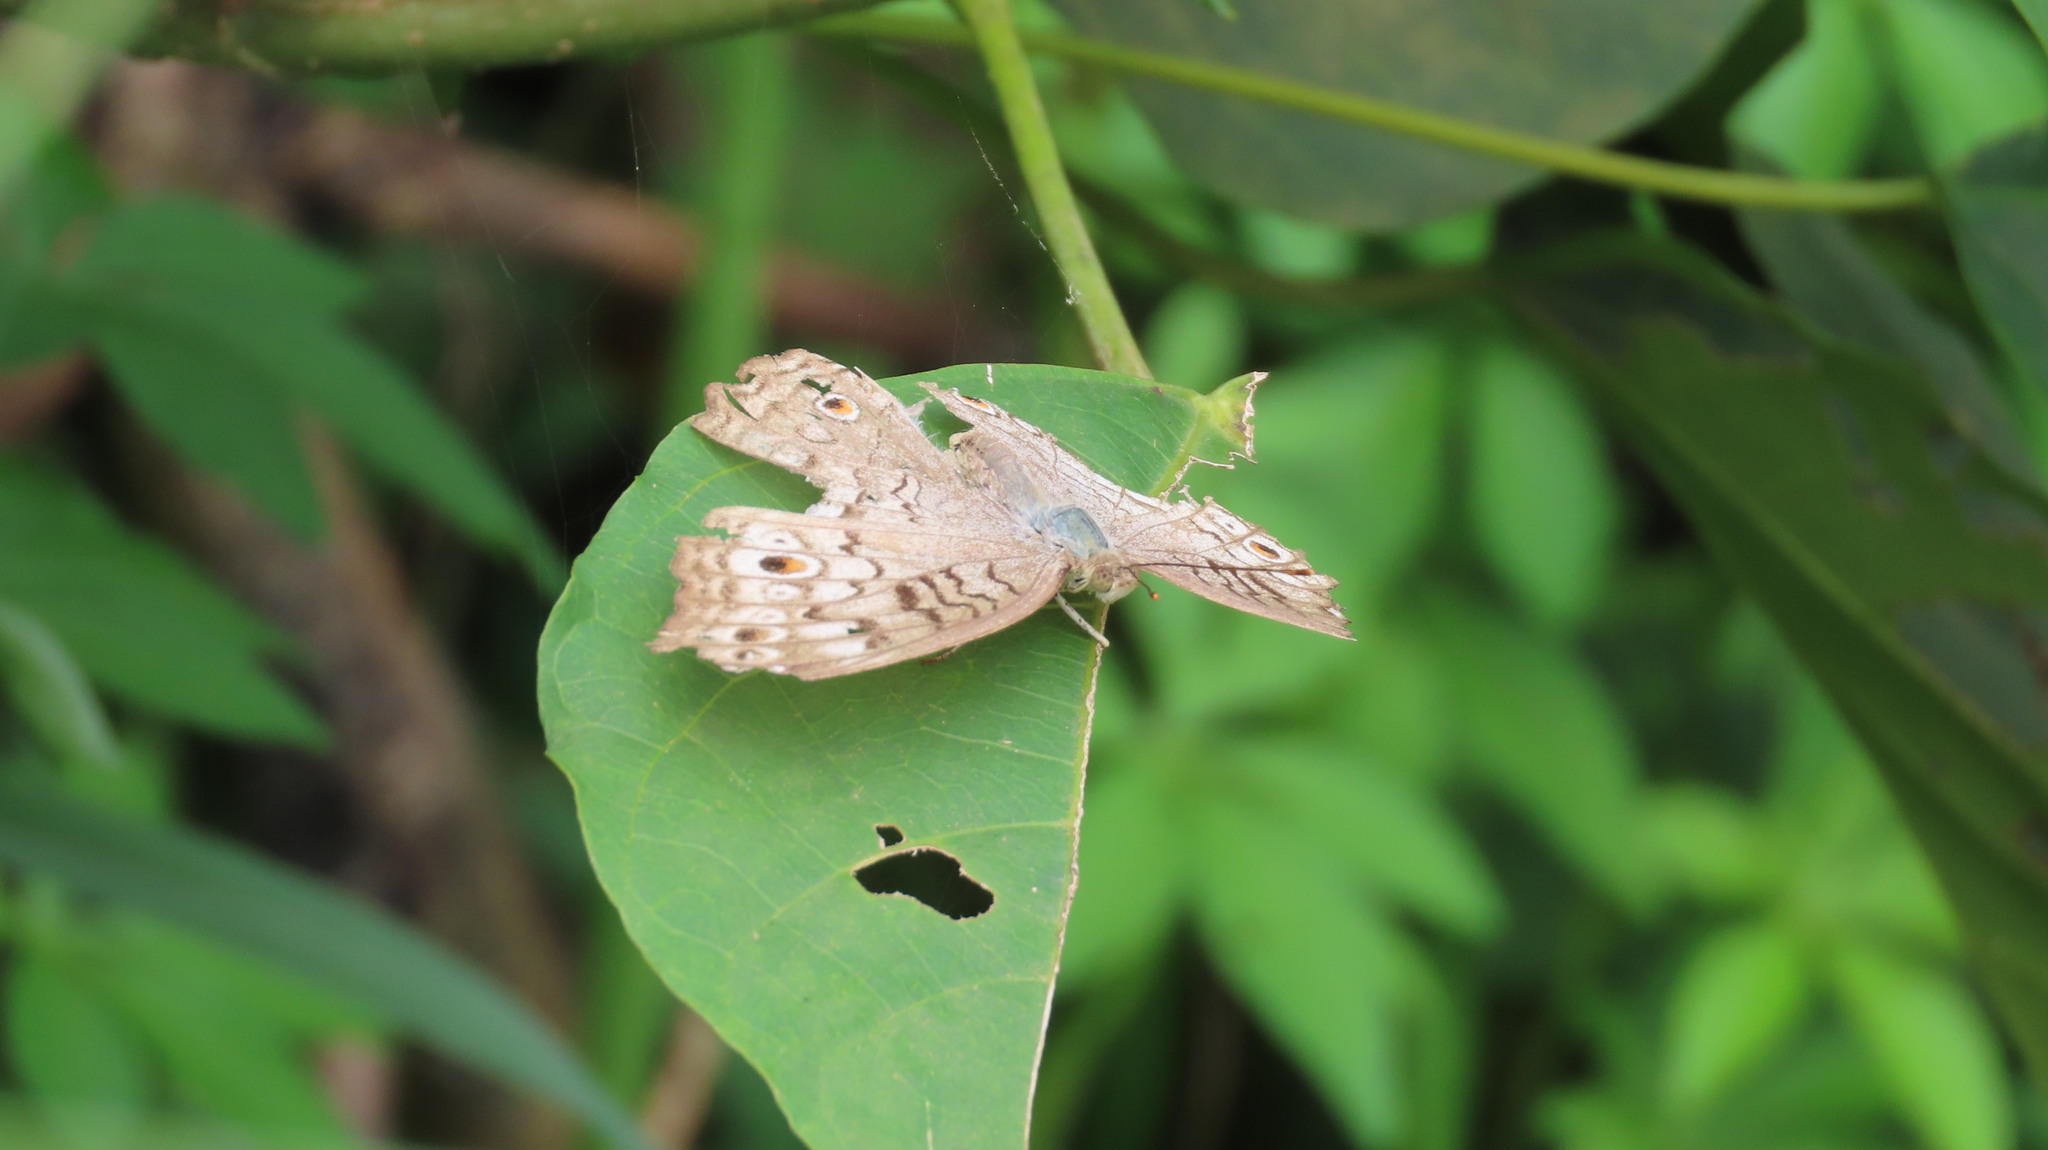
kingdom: Animalia
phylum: Arthropoda
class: Insecta
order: Lepidoptera
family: Nymphalidae
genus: Junonia
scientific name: Junonia atlites
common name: Grey pansy
